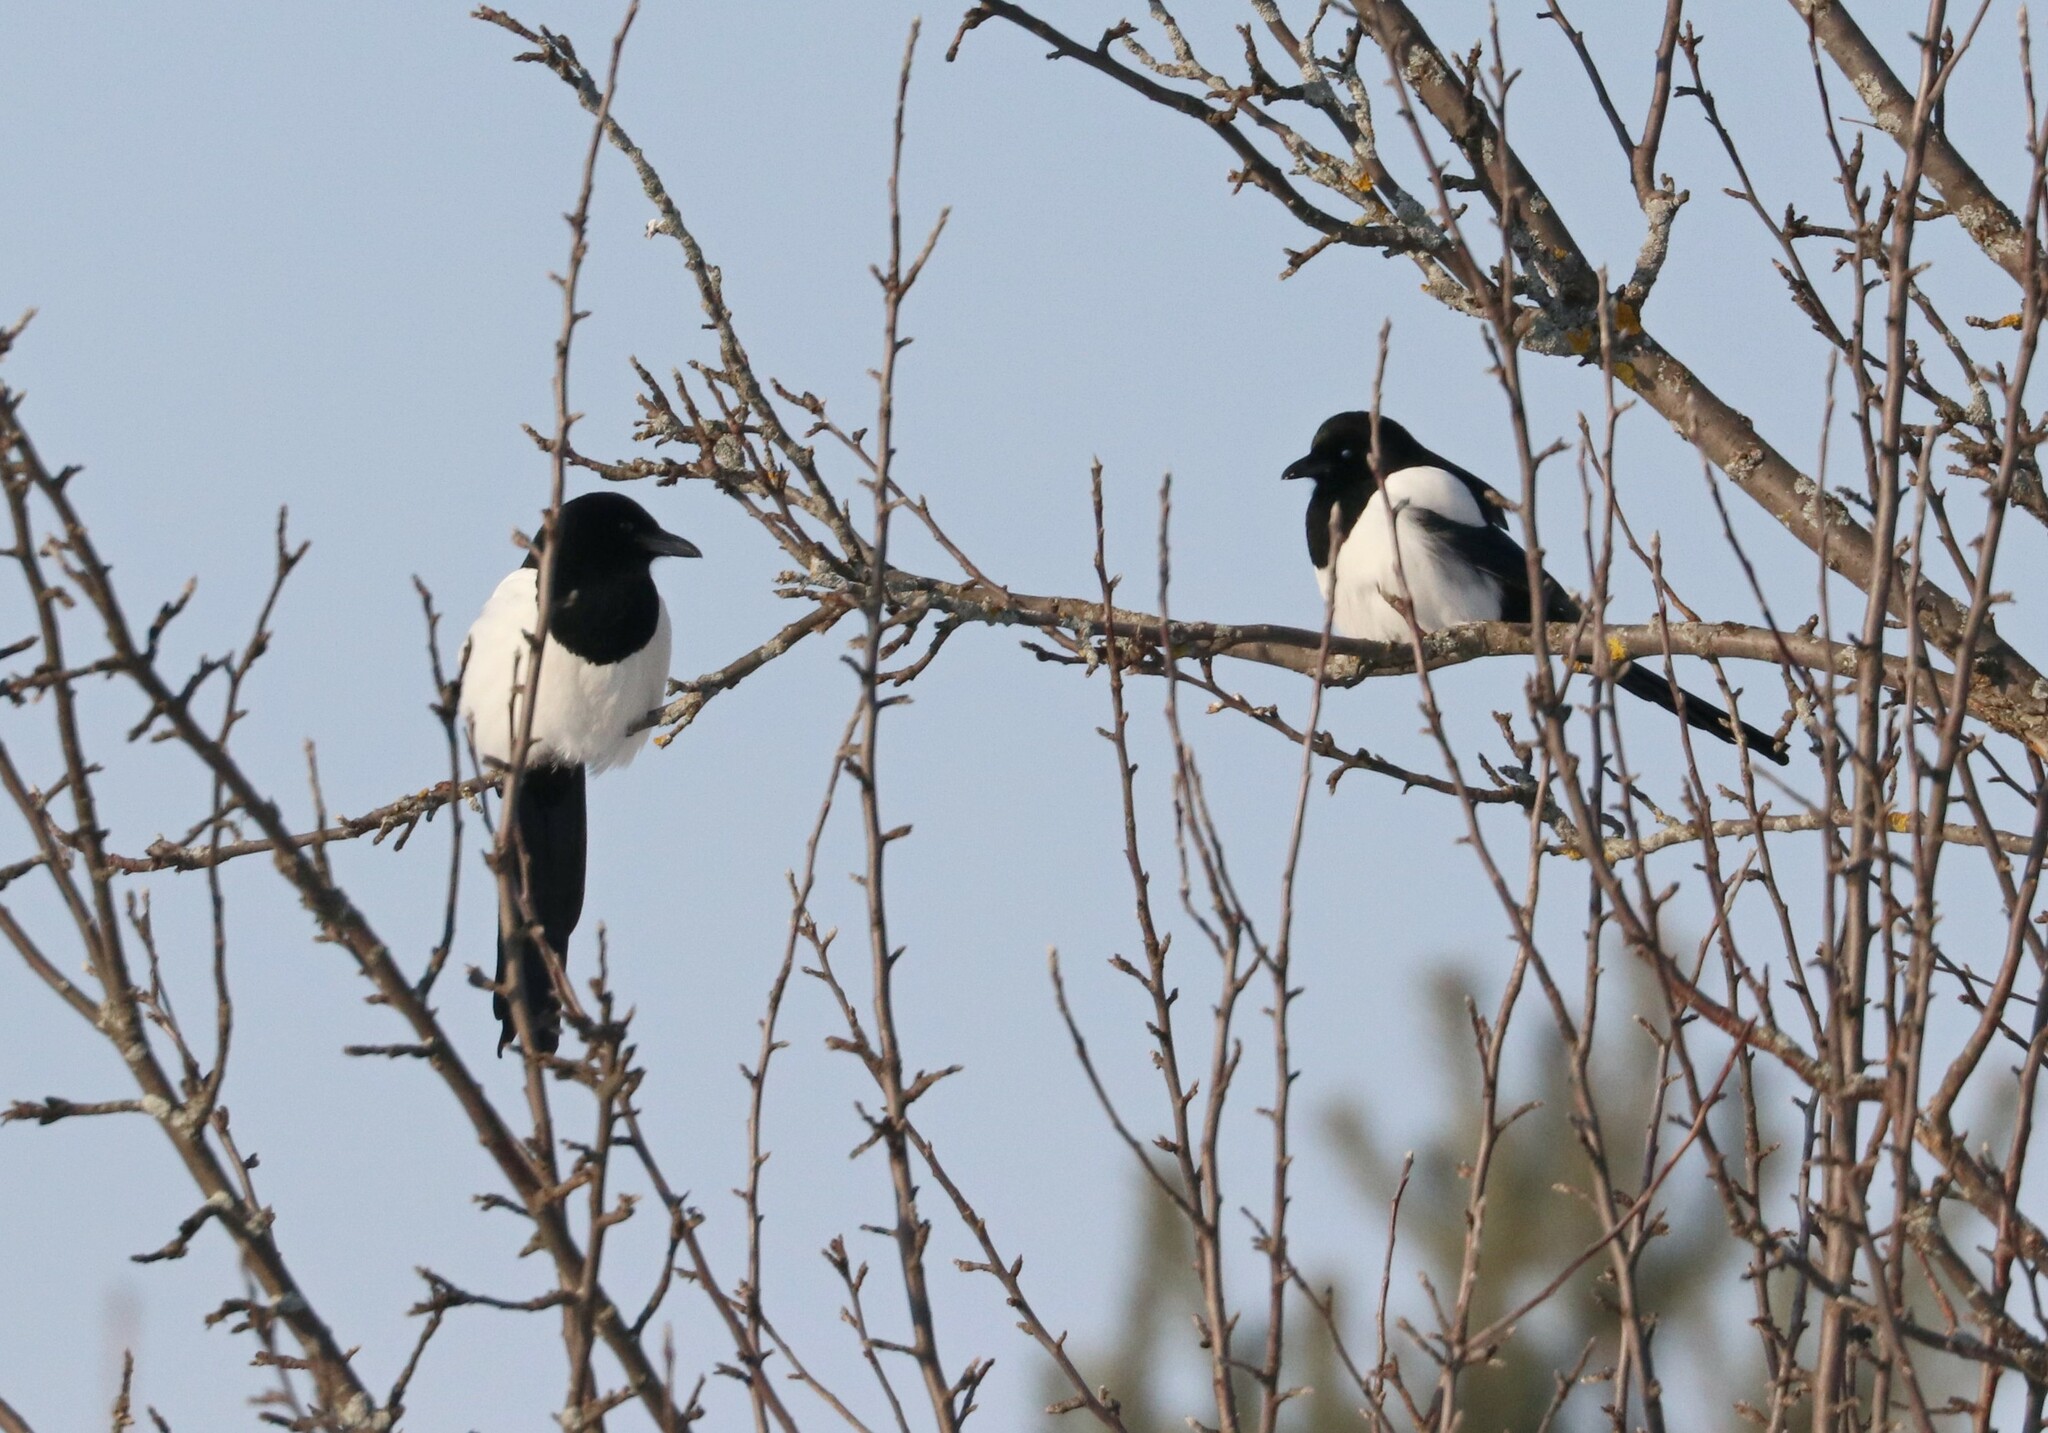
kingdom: Animalia
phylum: Chordata
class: Aves
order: Passeriformes
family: Corvidae
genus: Pica
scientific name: Pica pica
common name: Eurasian magpie
